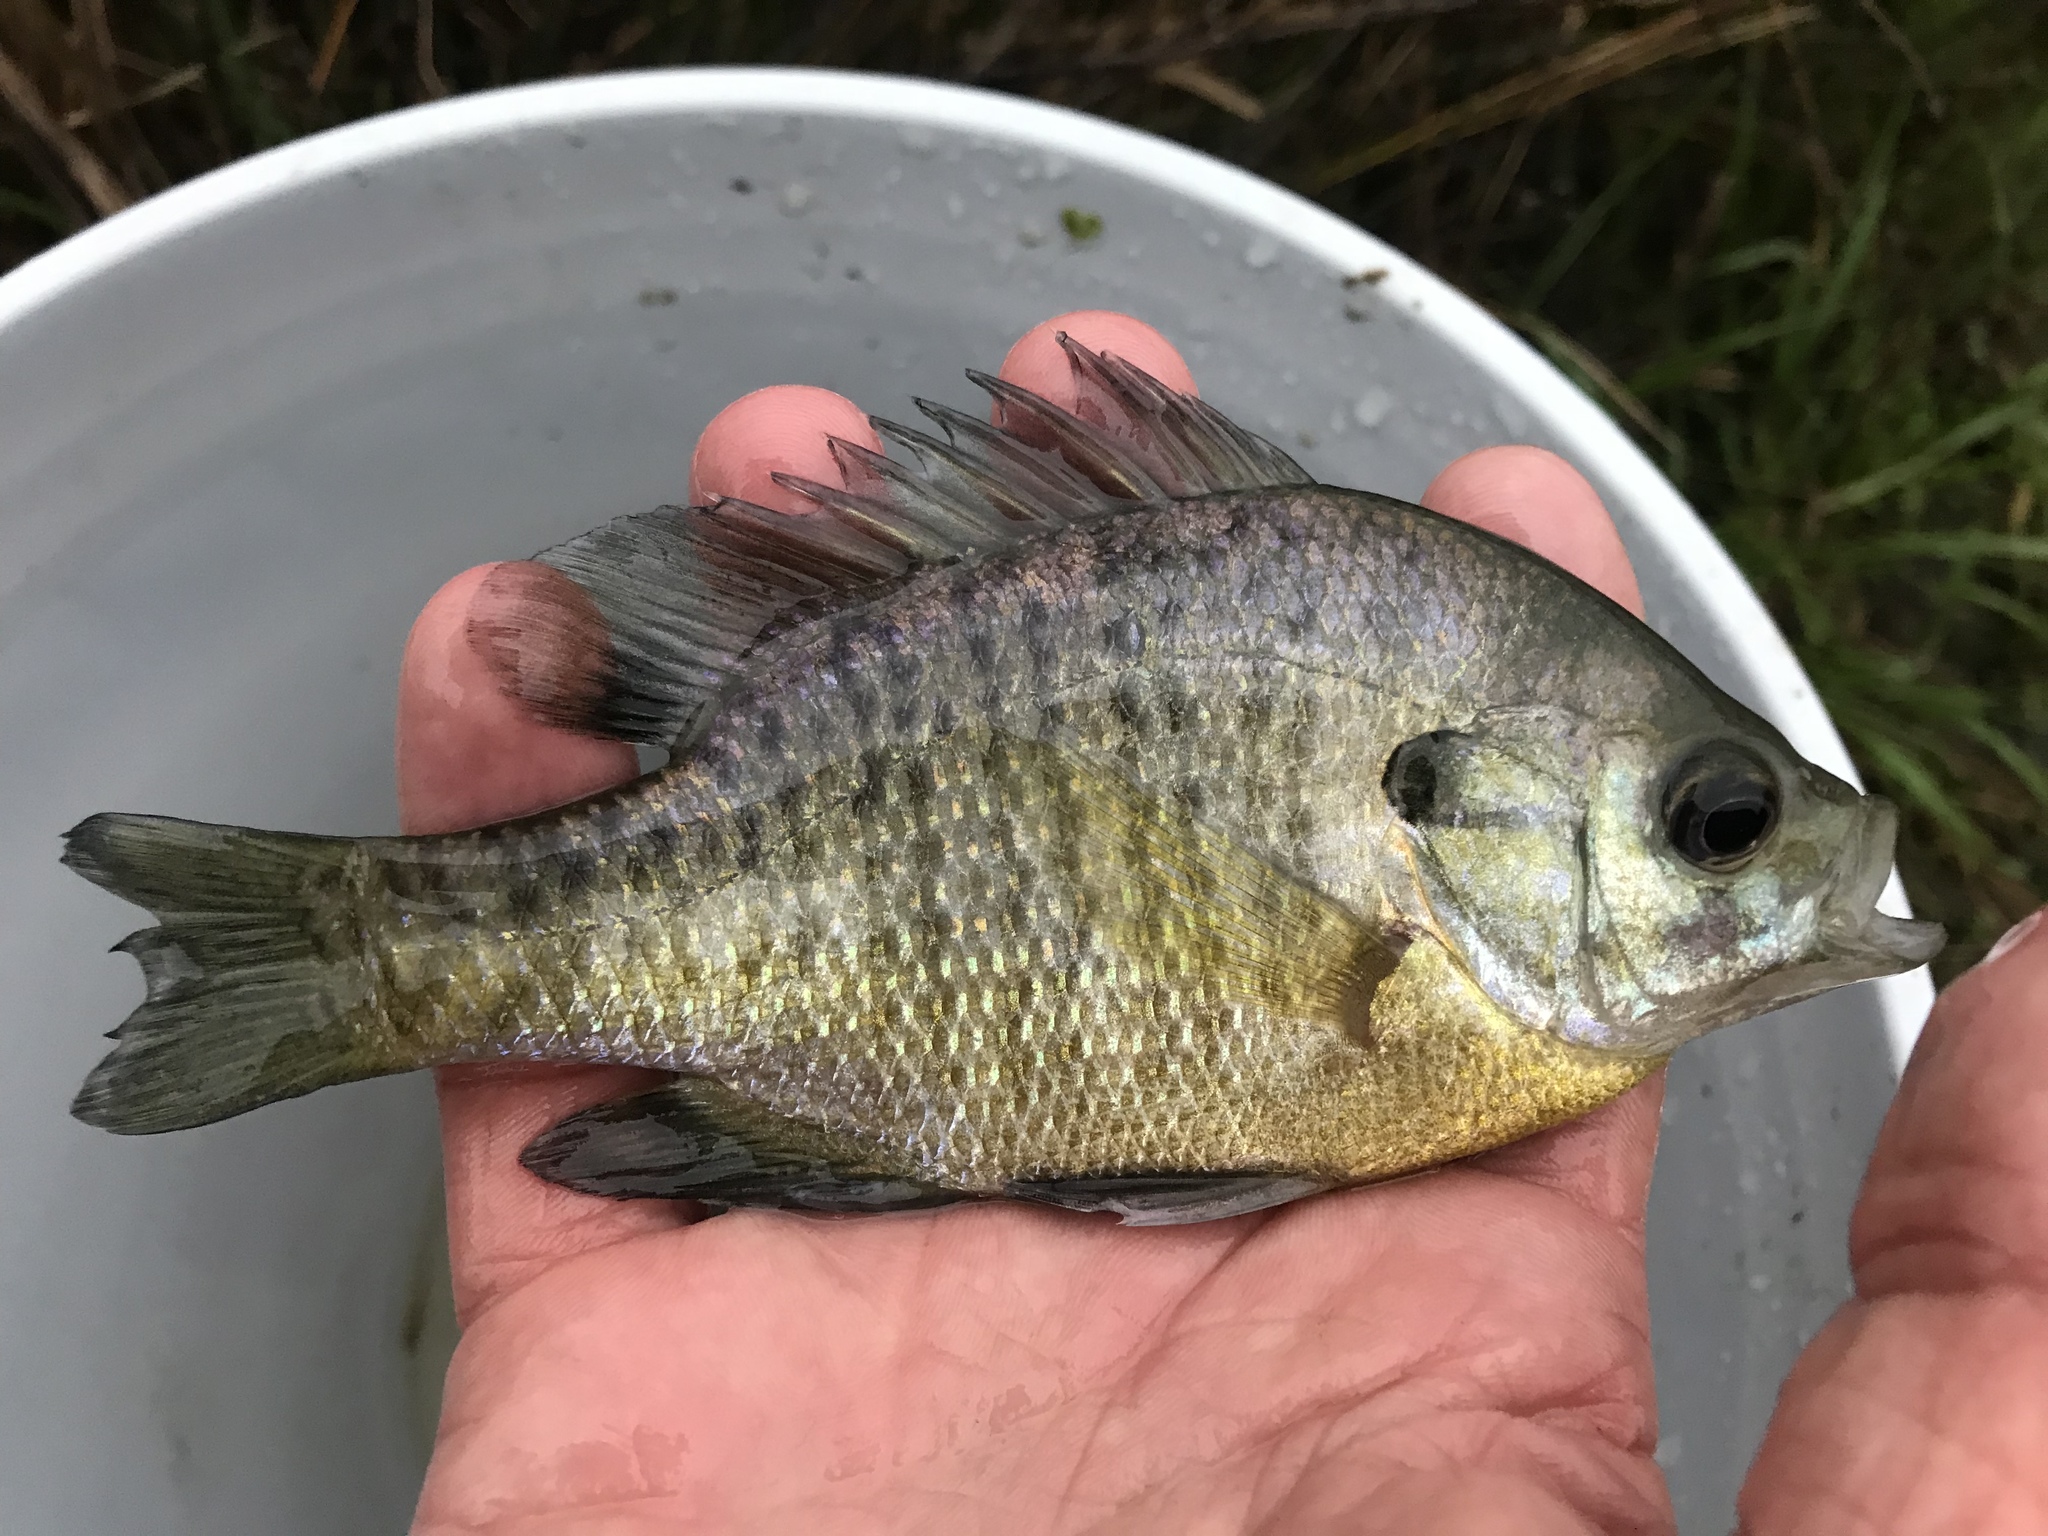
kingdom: Animalia
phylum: Chordata
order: Perciformes
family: Centrarchidae
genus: Lepomis
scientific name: Lepomis macrochirus
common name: Bluegill
